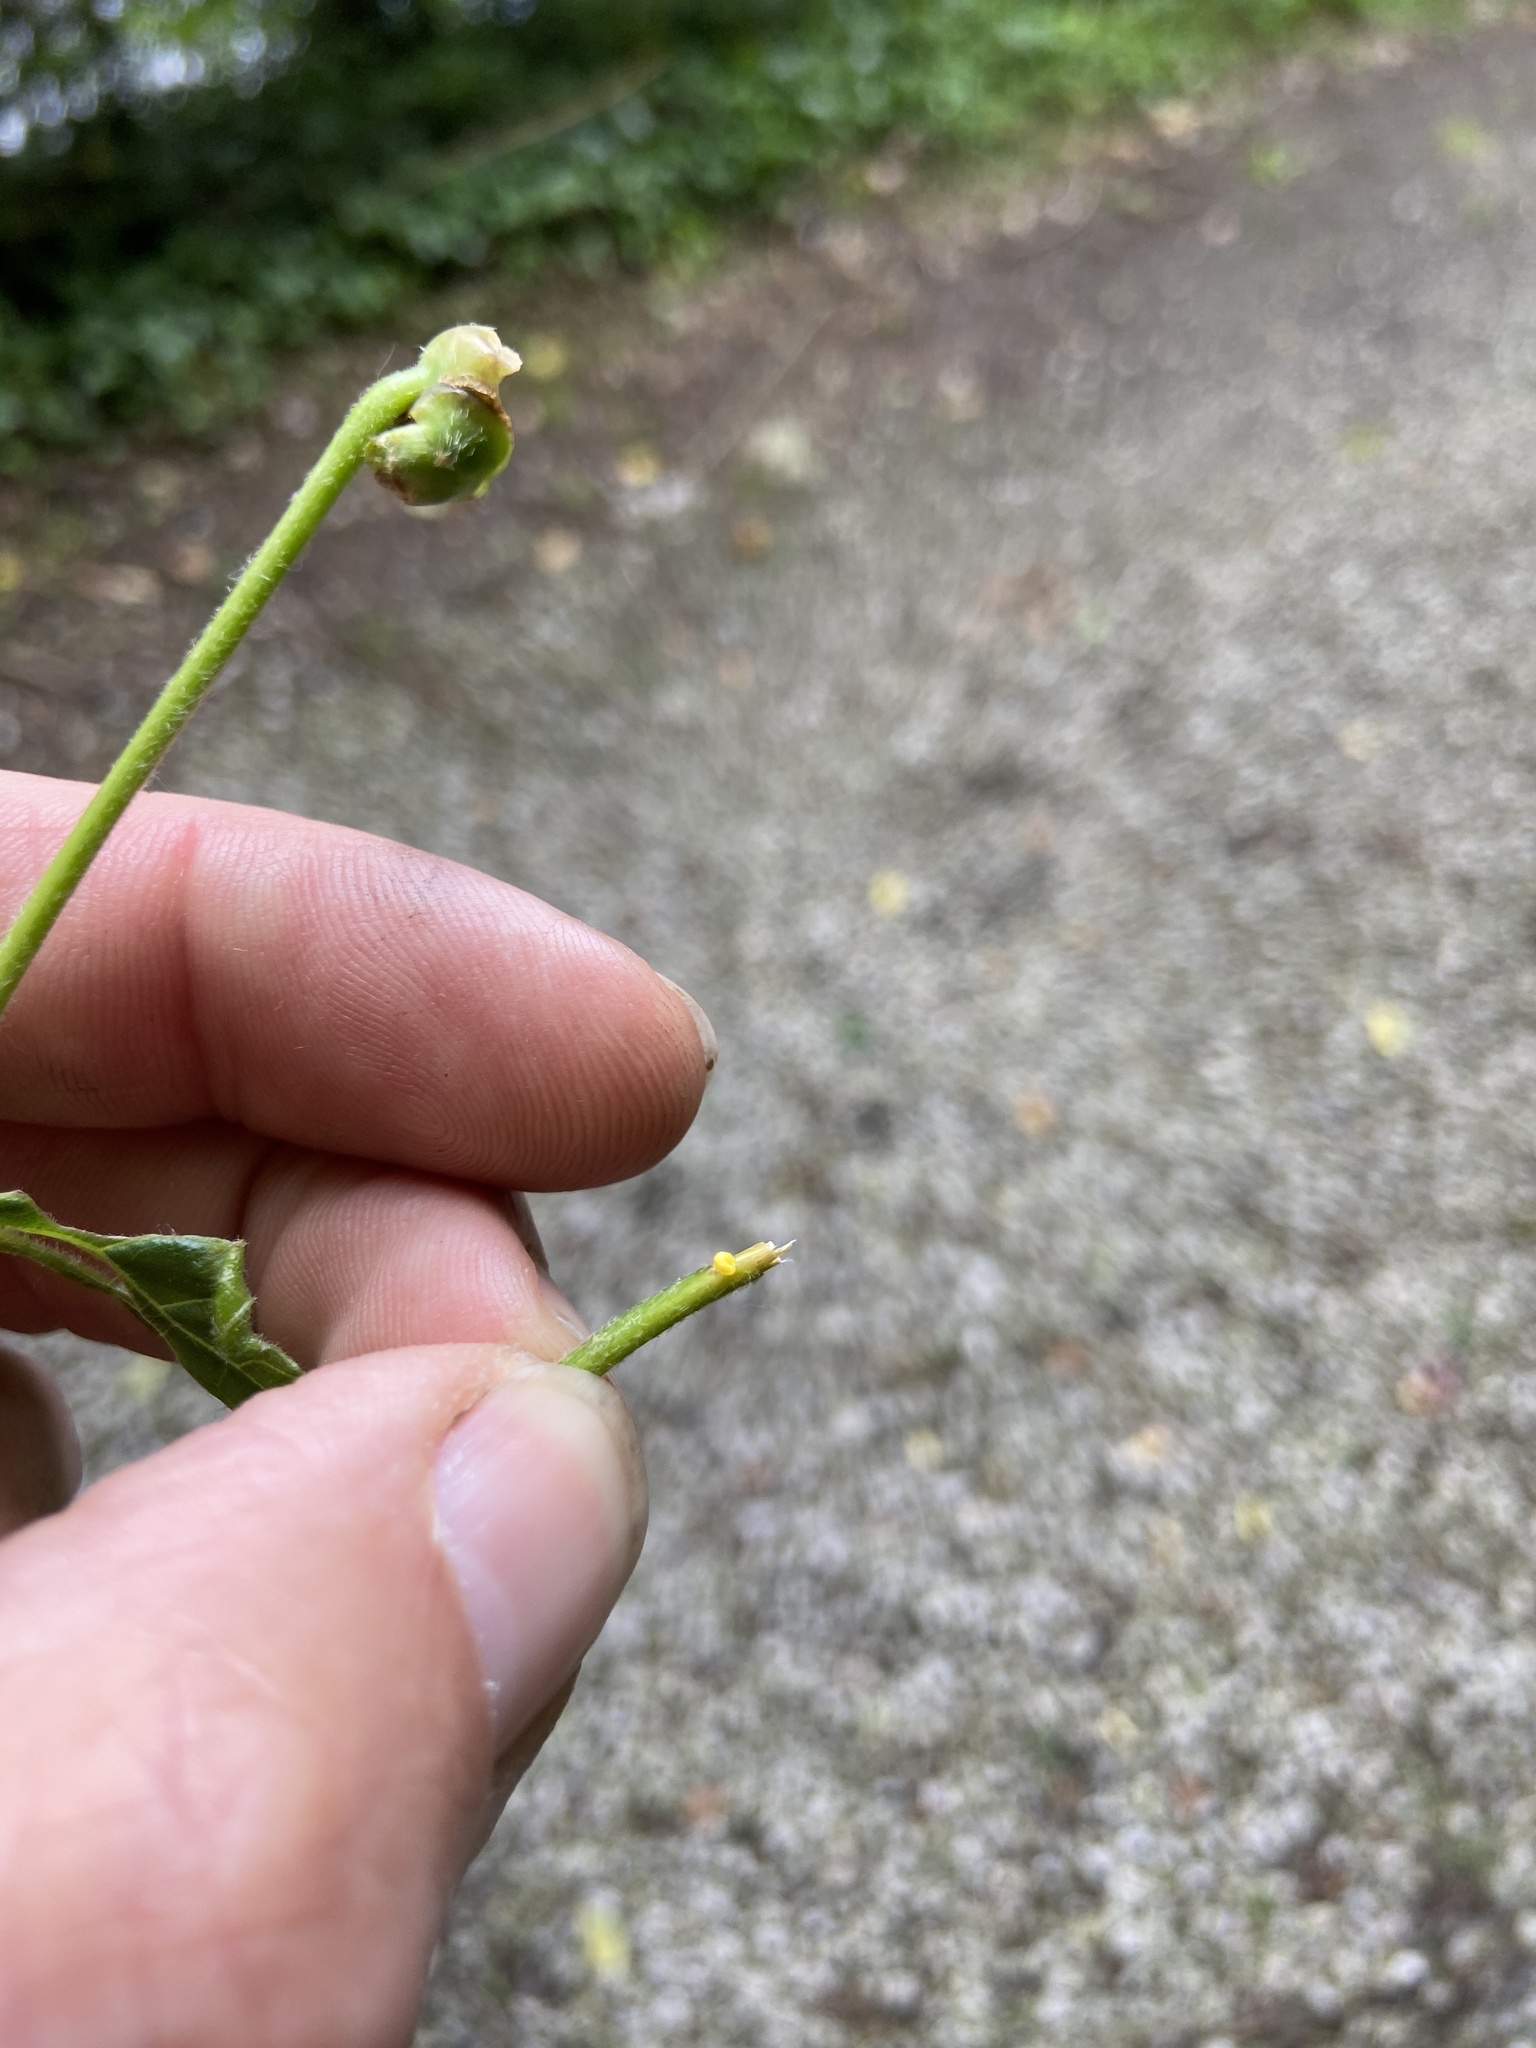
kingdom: Animalia
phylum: Arthropoda
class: Insecta
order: Diptera
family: Cecidomyiidae
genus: Contarinia
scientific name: Contarinia tiliarum
